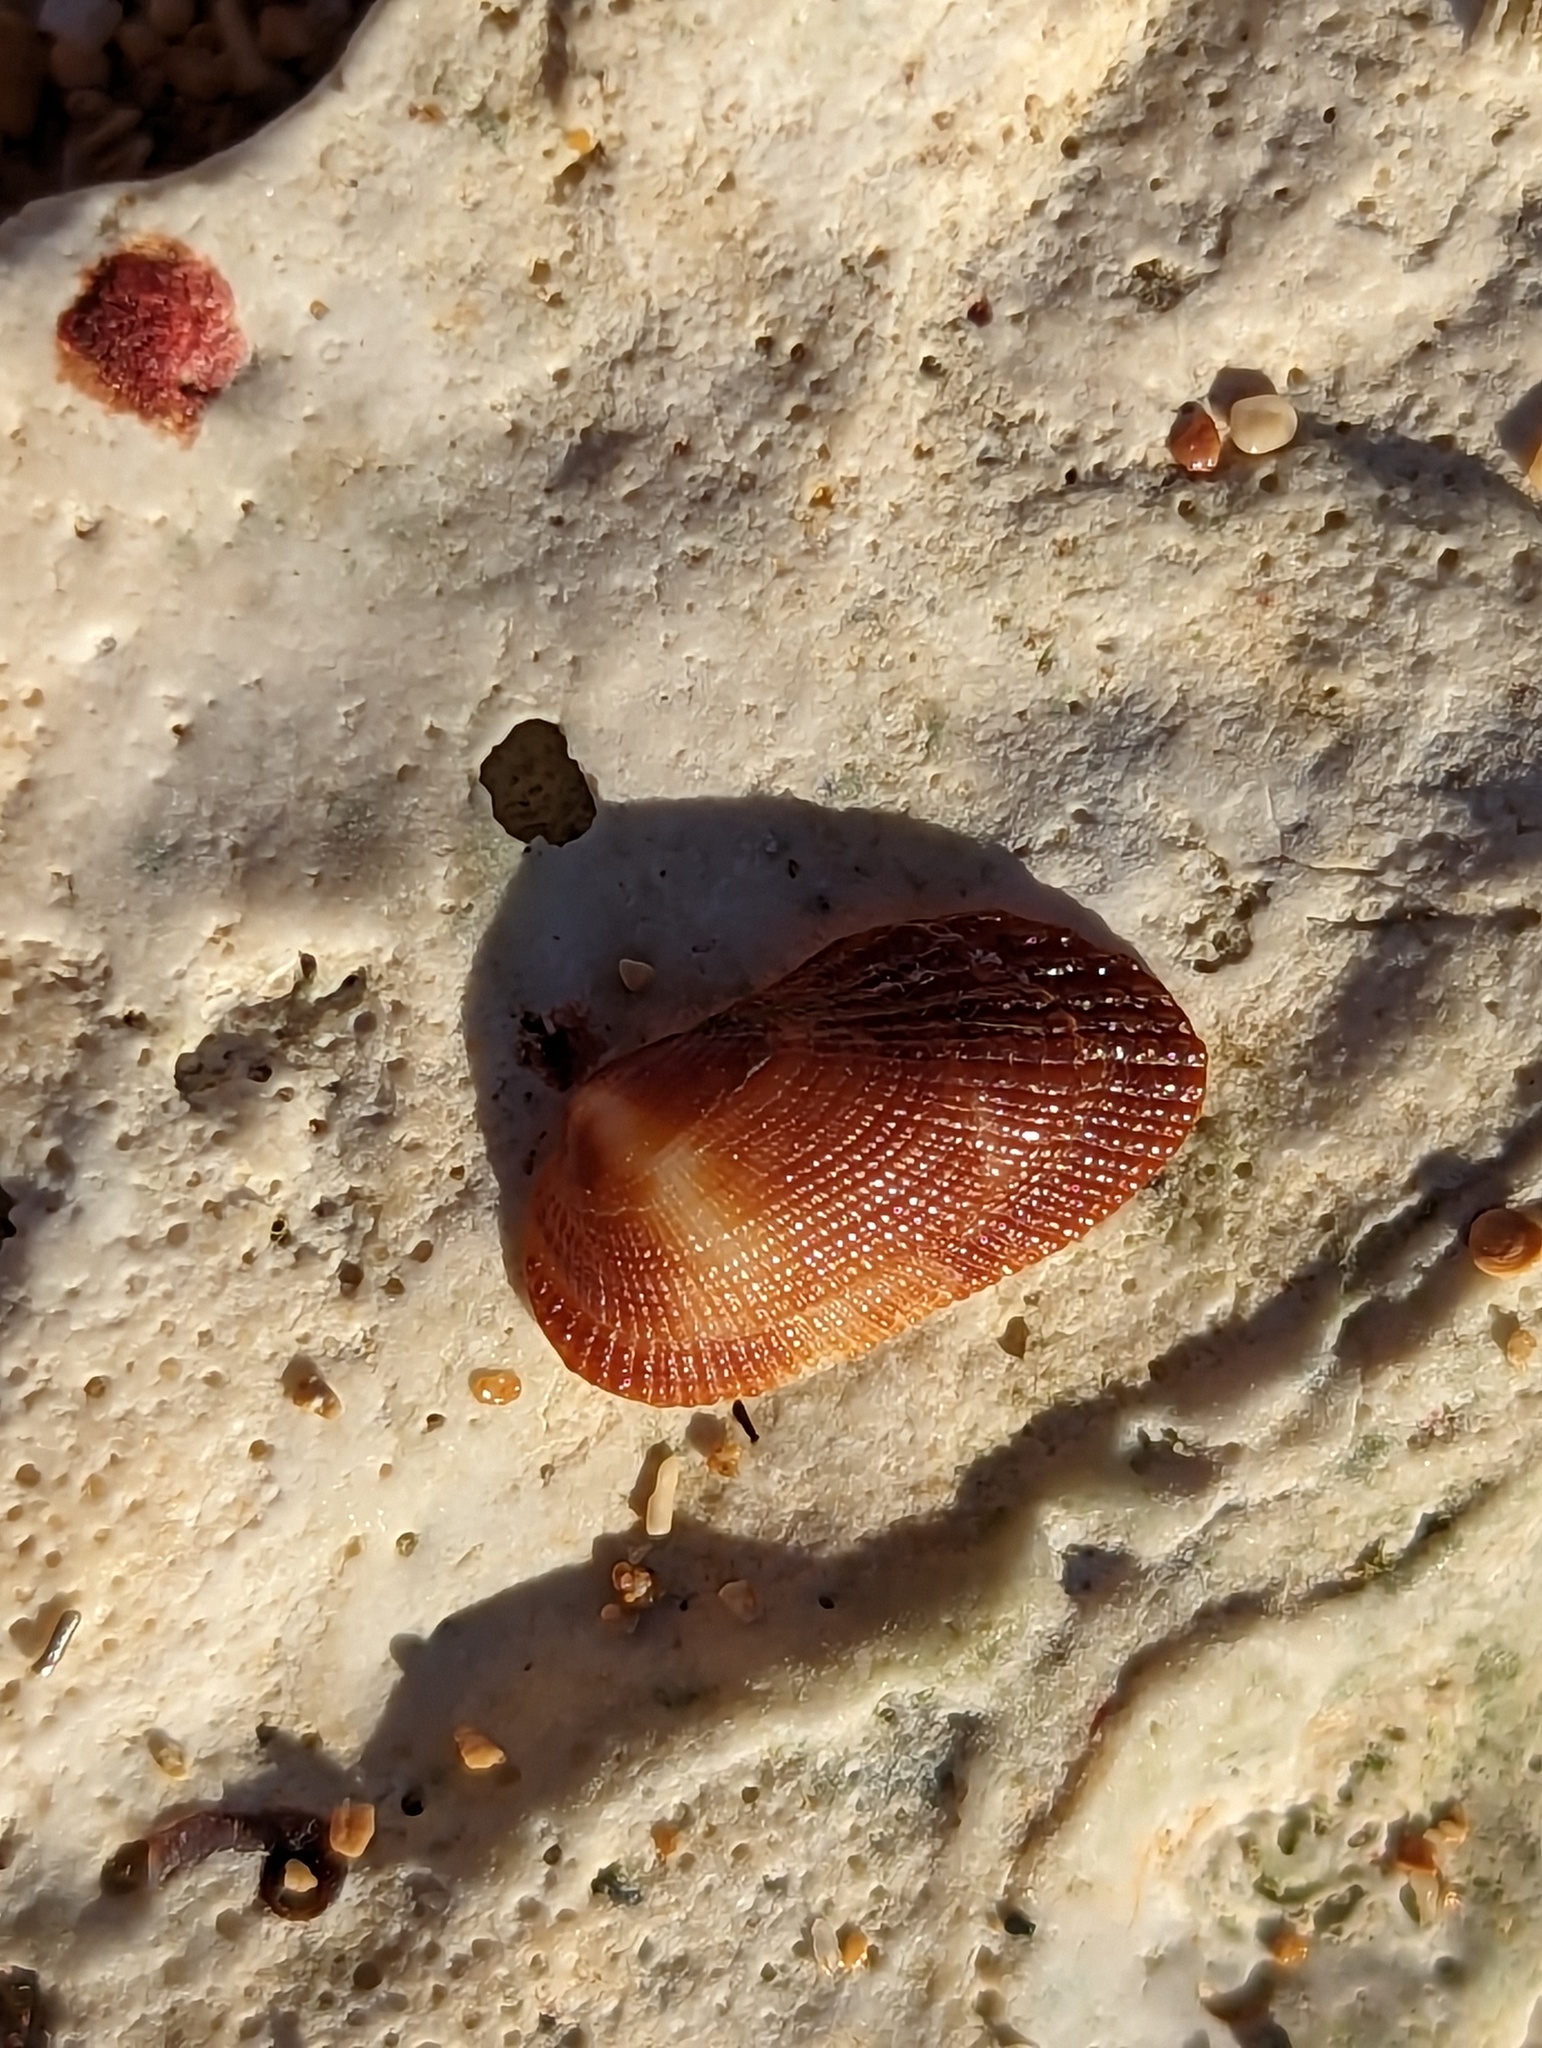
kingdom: Animalia
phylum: Mollusca
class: Bivalvia
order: Arcida
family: Arcidae
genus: Barbatia
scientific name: Barbatia domingensis
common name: White miniature ark
